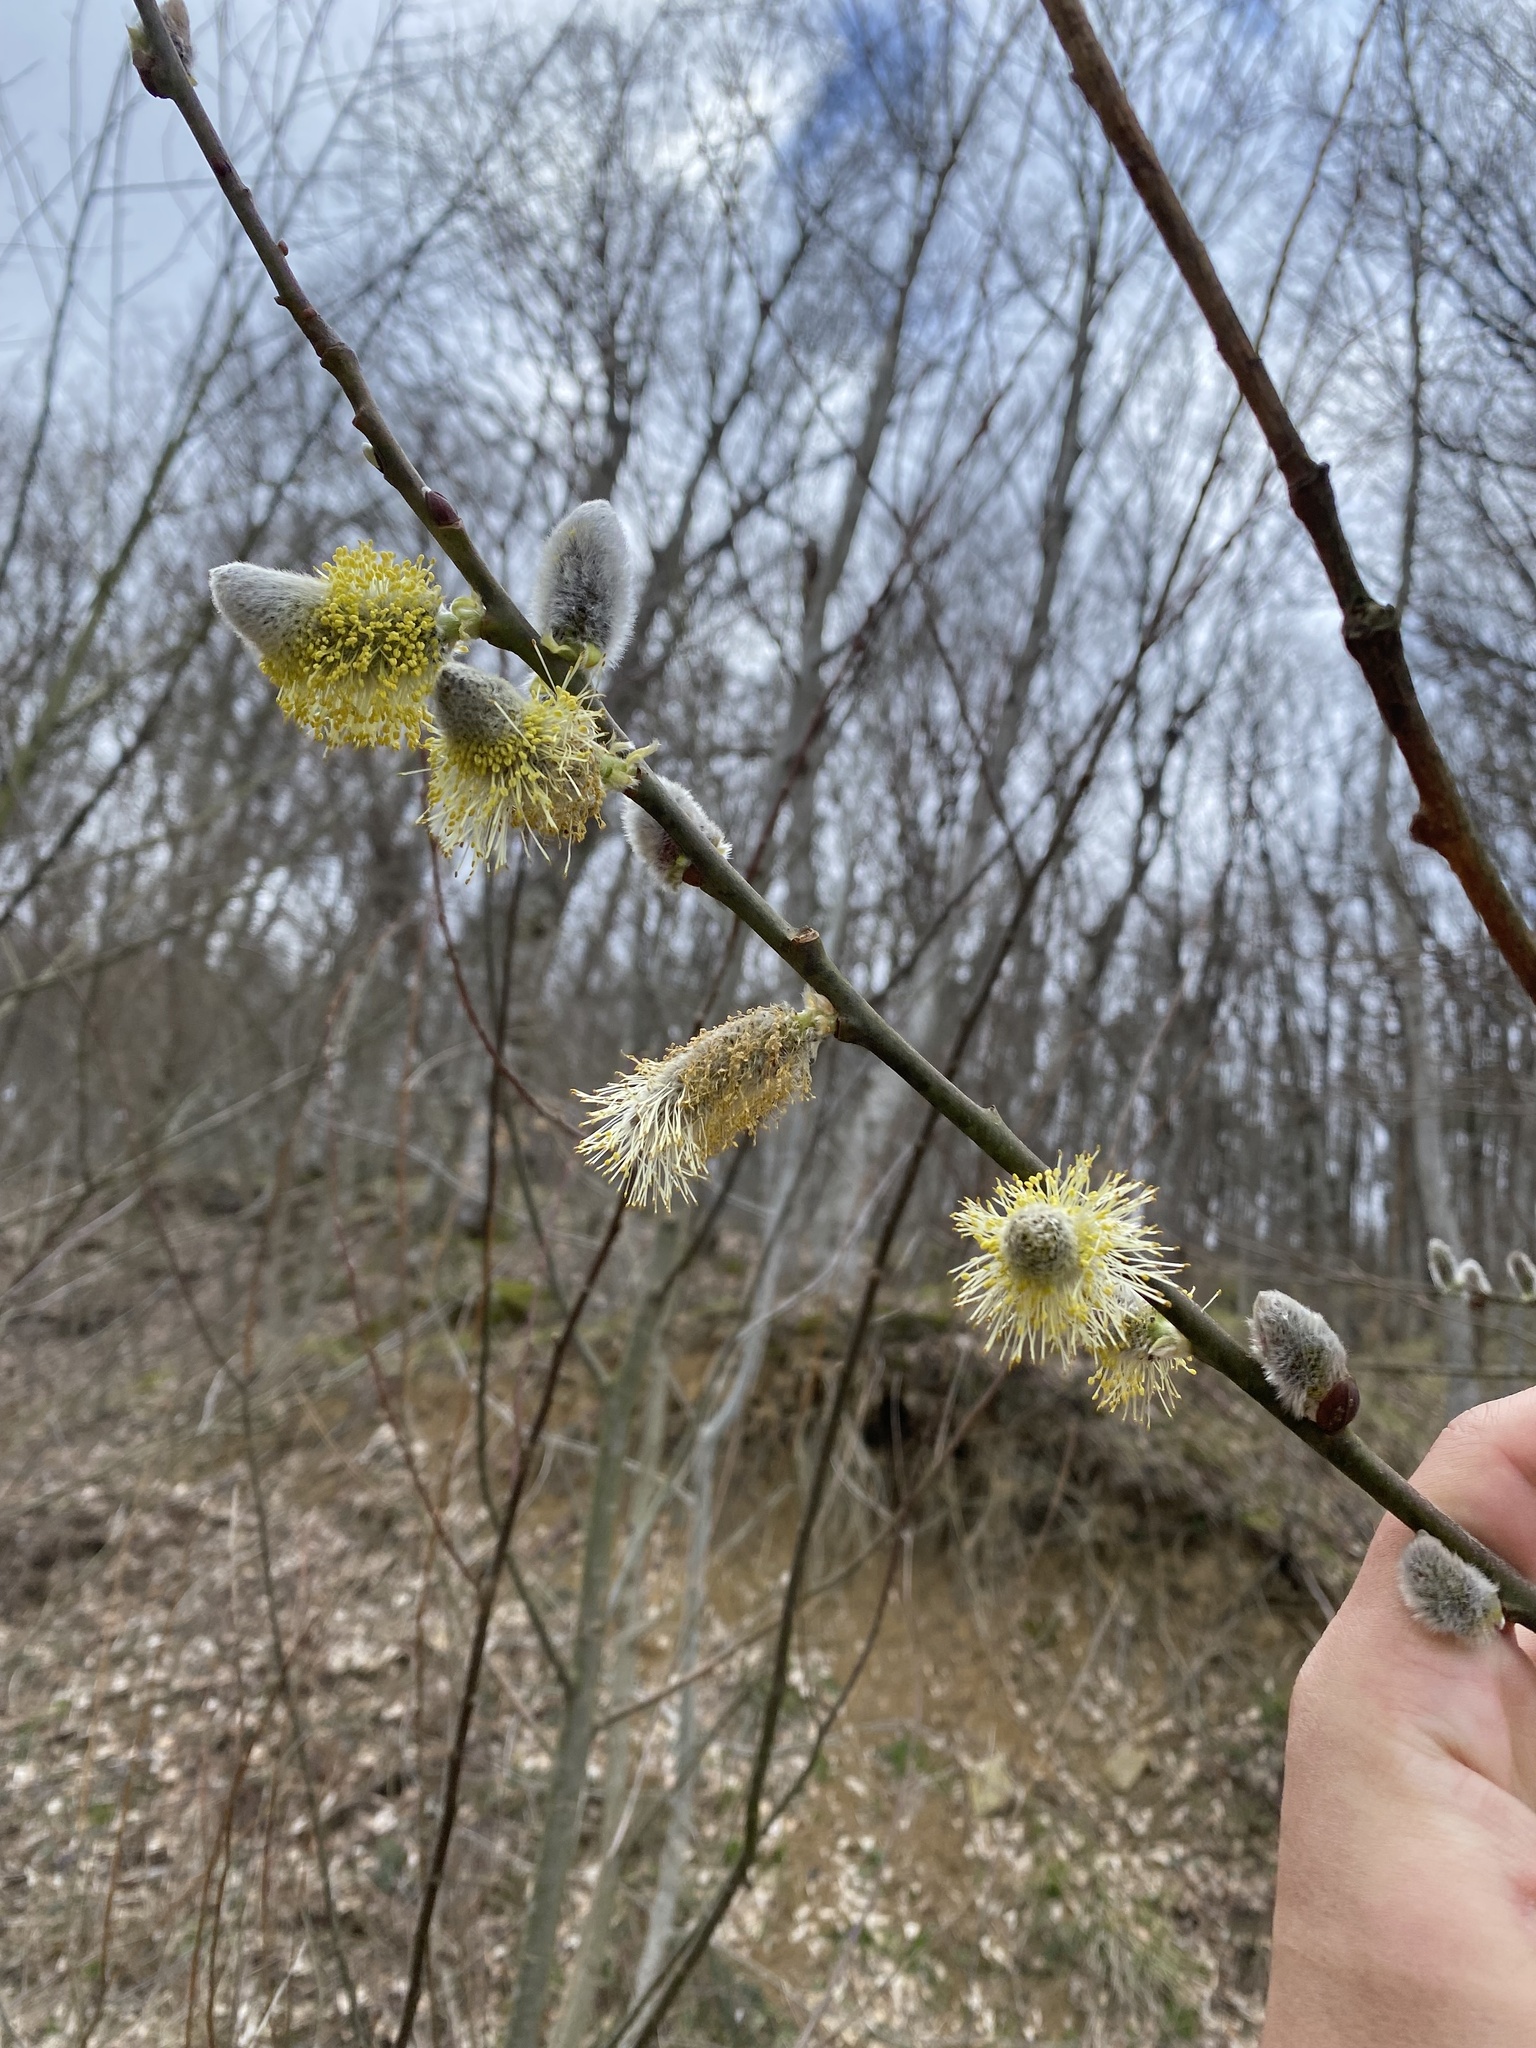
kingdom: Plantae
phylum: Tracheophyta
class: Magnoliopsida
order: Malpighiales
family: Salicaceae
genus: Salix
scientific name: Salix caprea
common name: Goat willow
